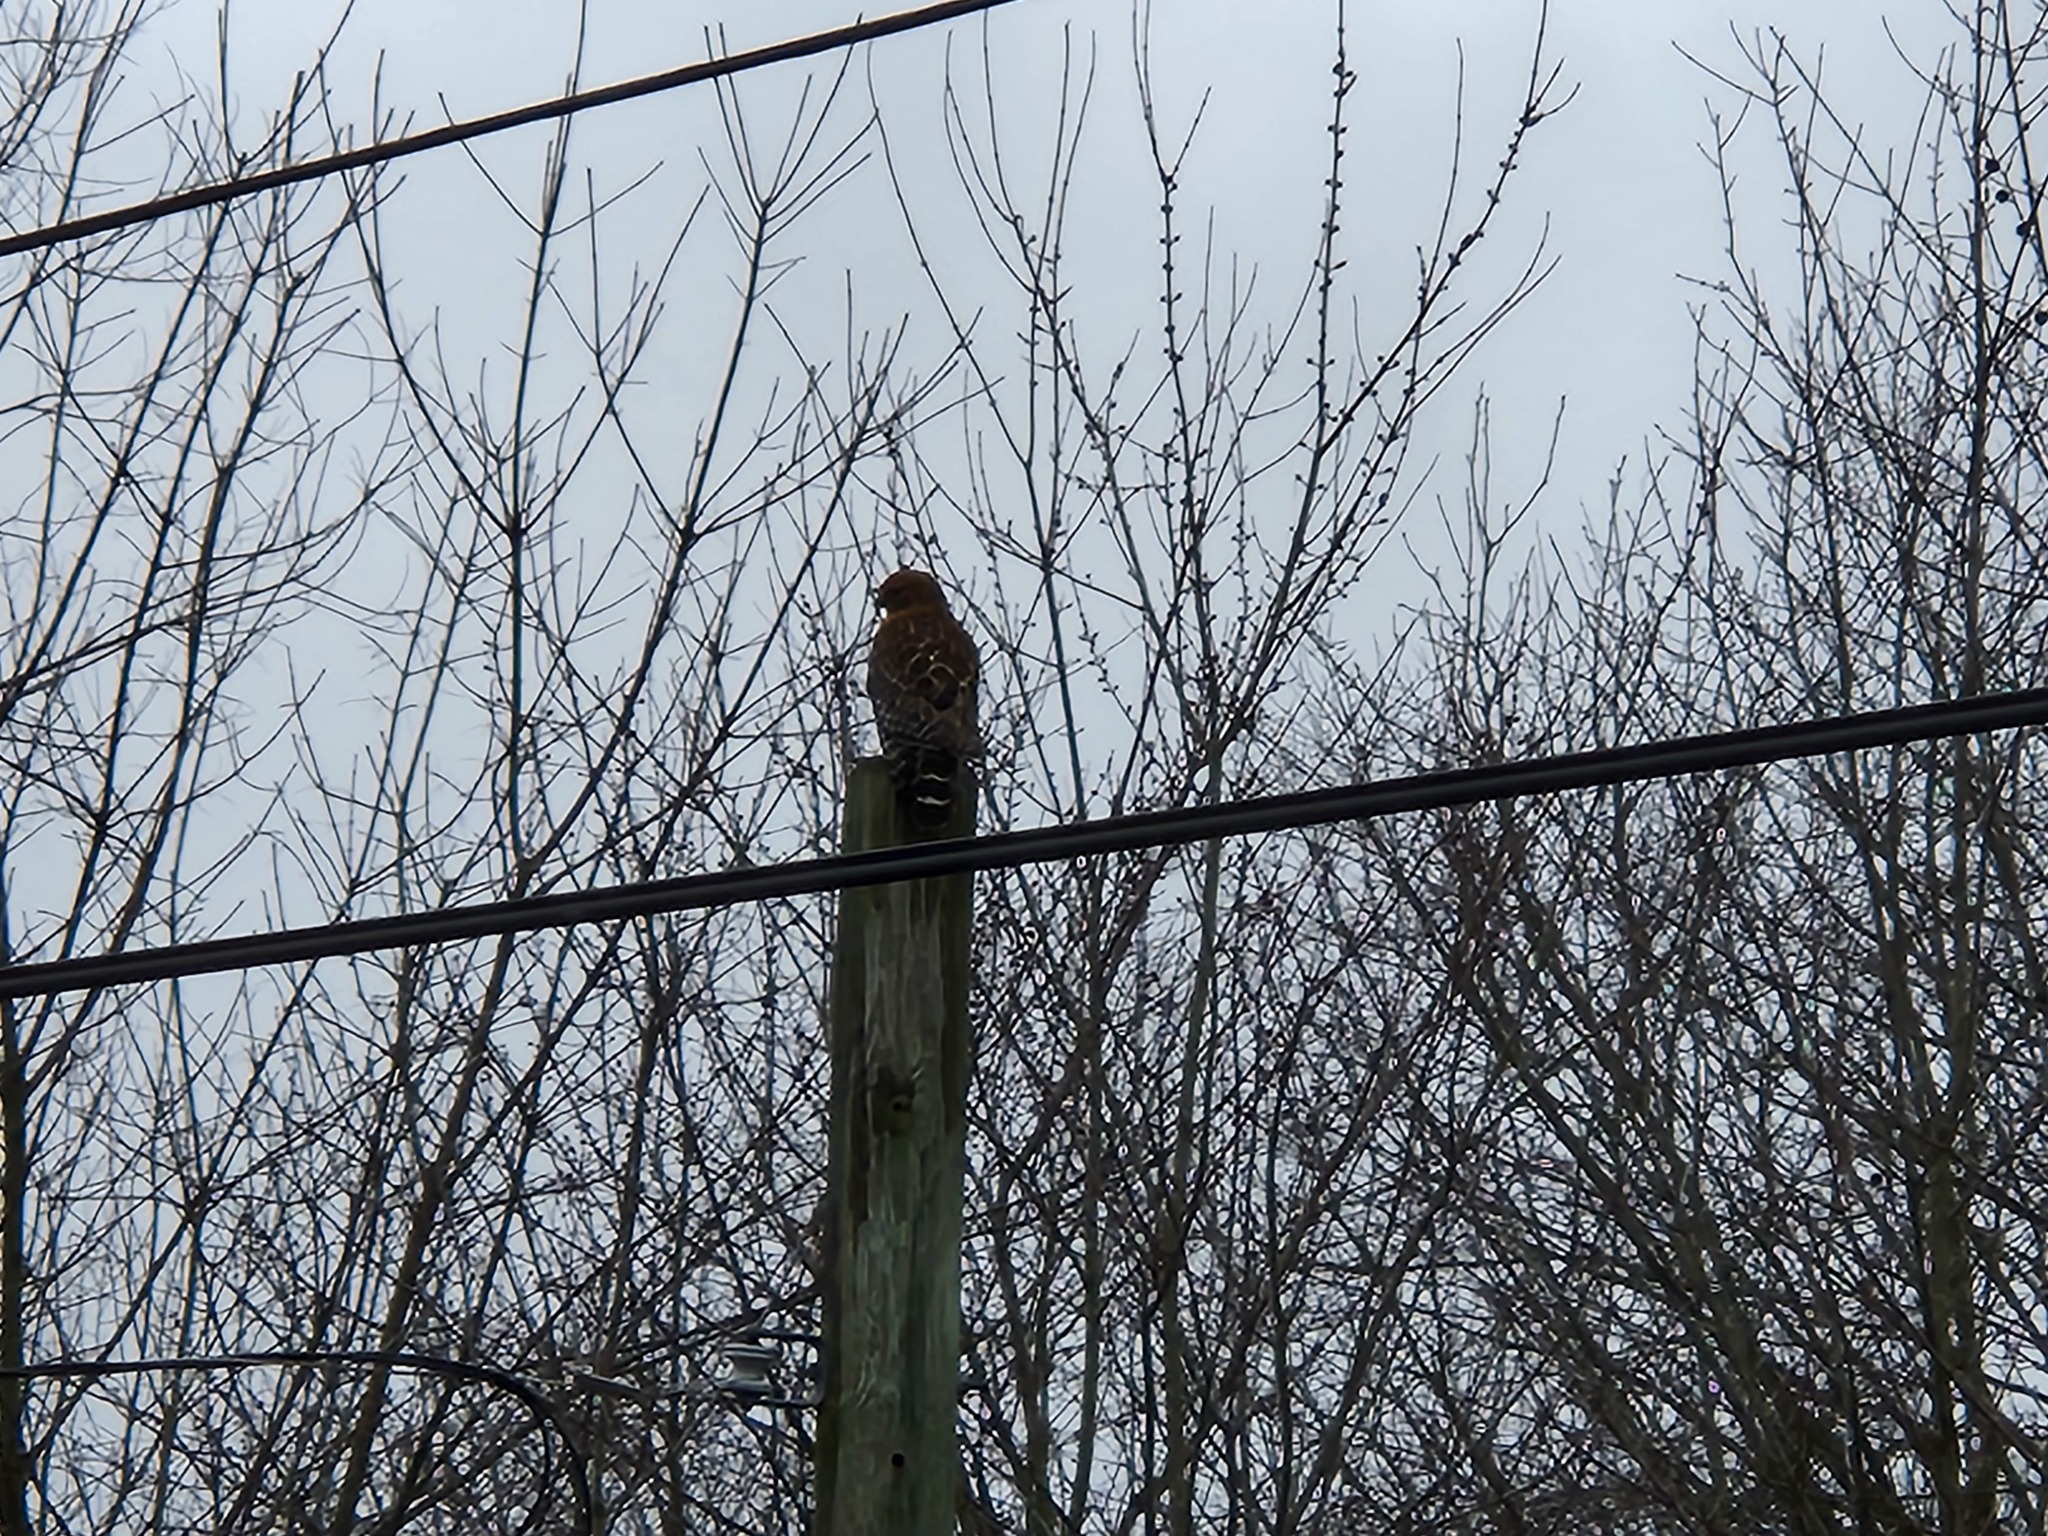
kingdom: Animalia
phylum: Chordata
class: Aves
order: Accipitriformes
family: Accipitridae
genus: Buteo
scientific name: Buteo lineatus
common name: Red-shouldered hawk
